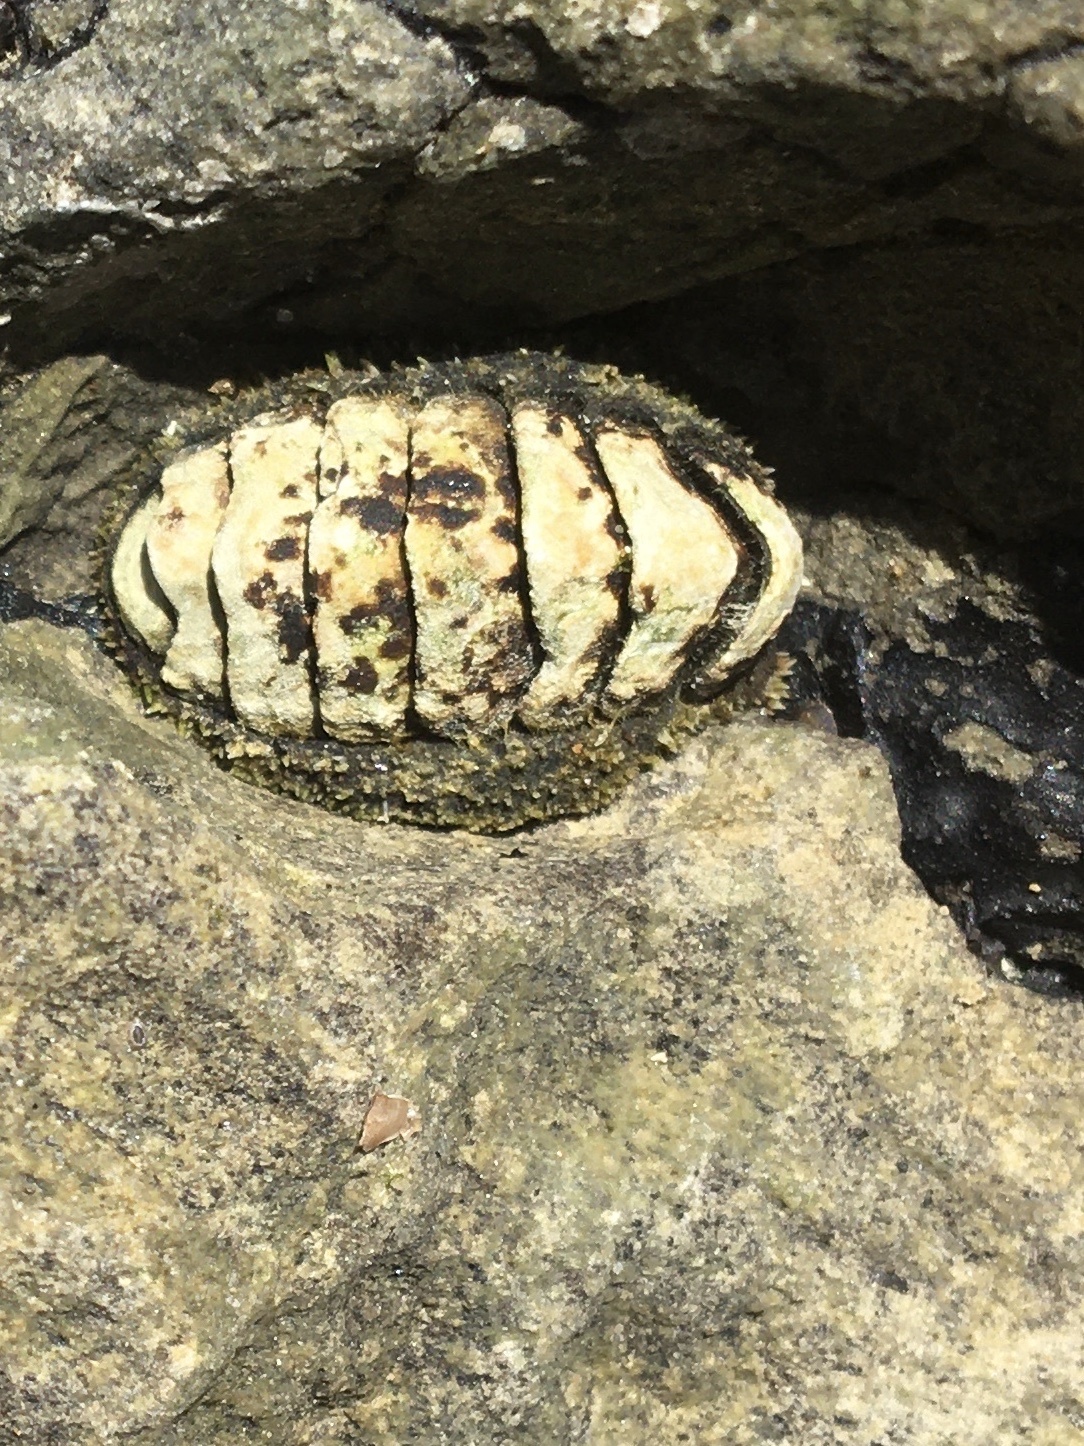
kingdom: Animalia
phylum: Mollusca
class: Polyplacophora
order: Chitonida
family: Tonicellidae
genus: Nuttallina
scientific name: Nuttallina californica
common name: California nuttall chiton
